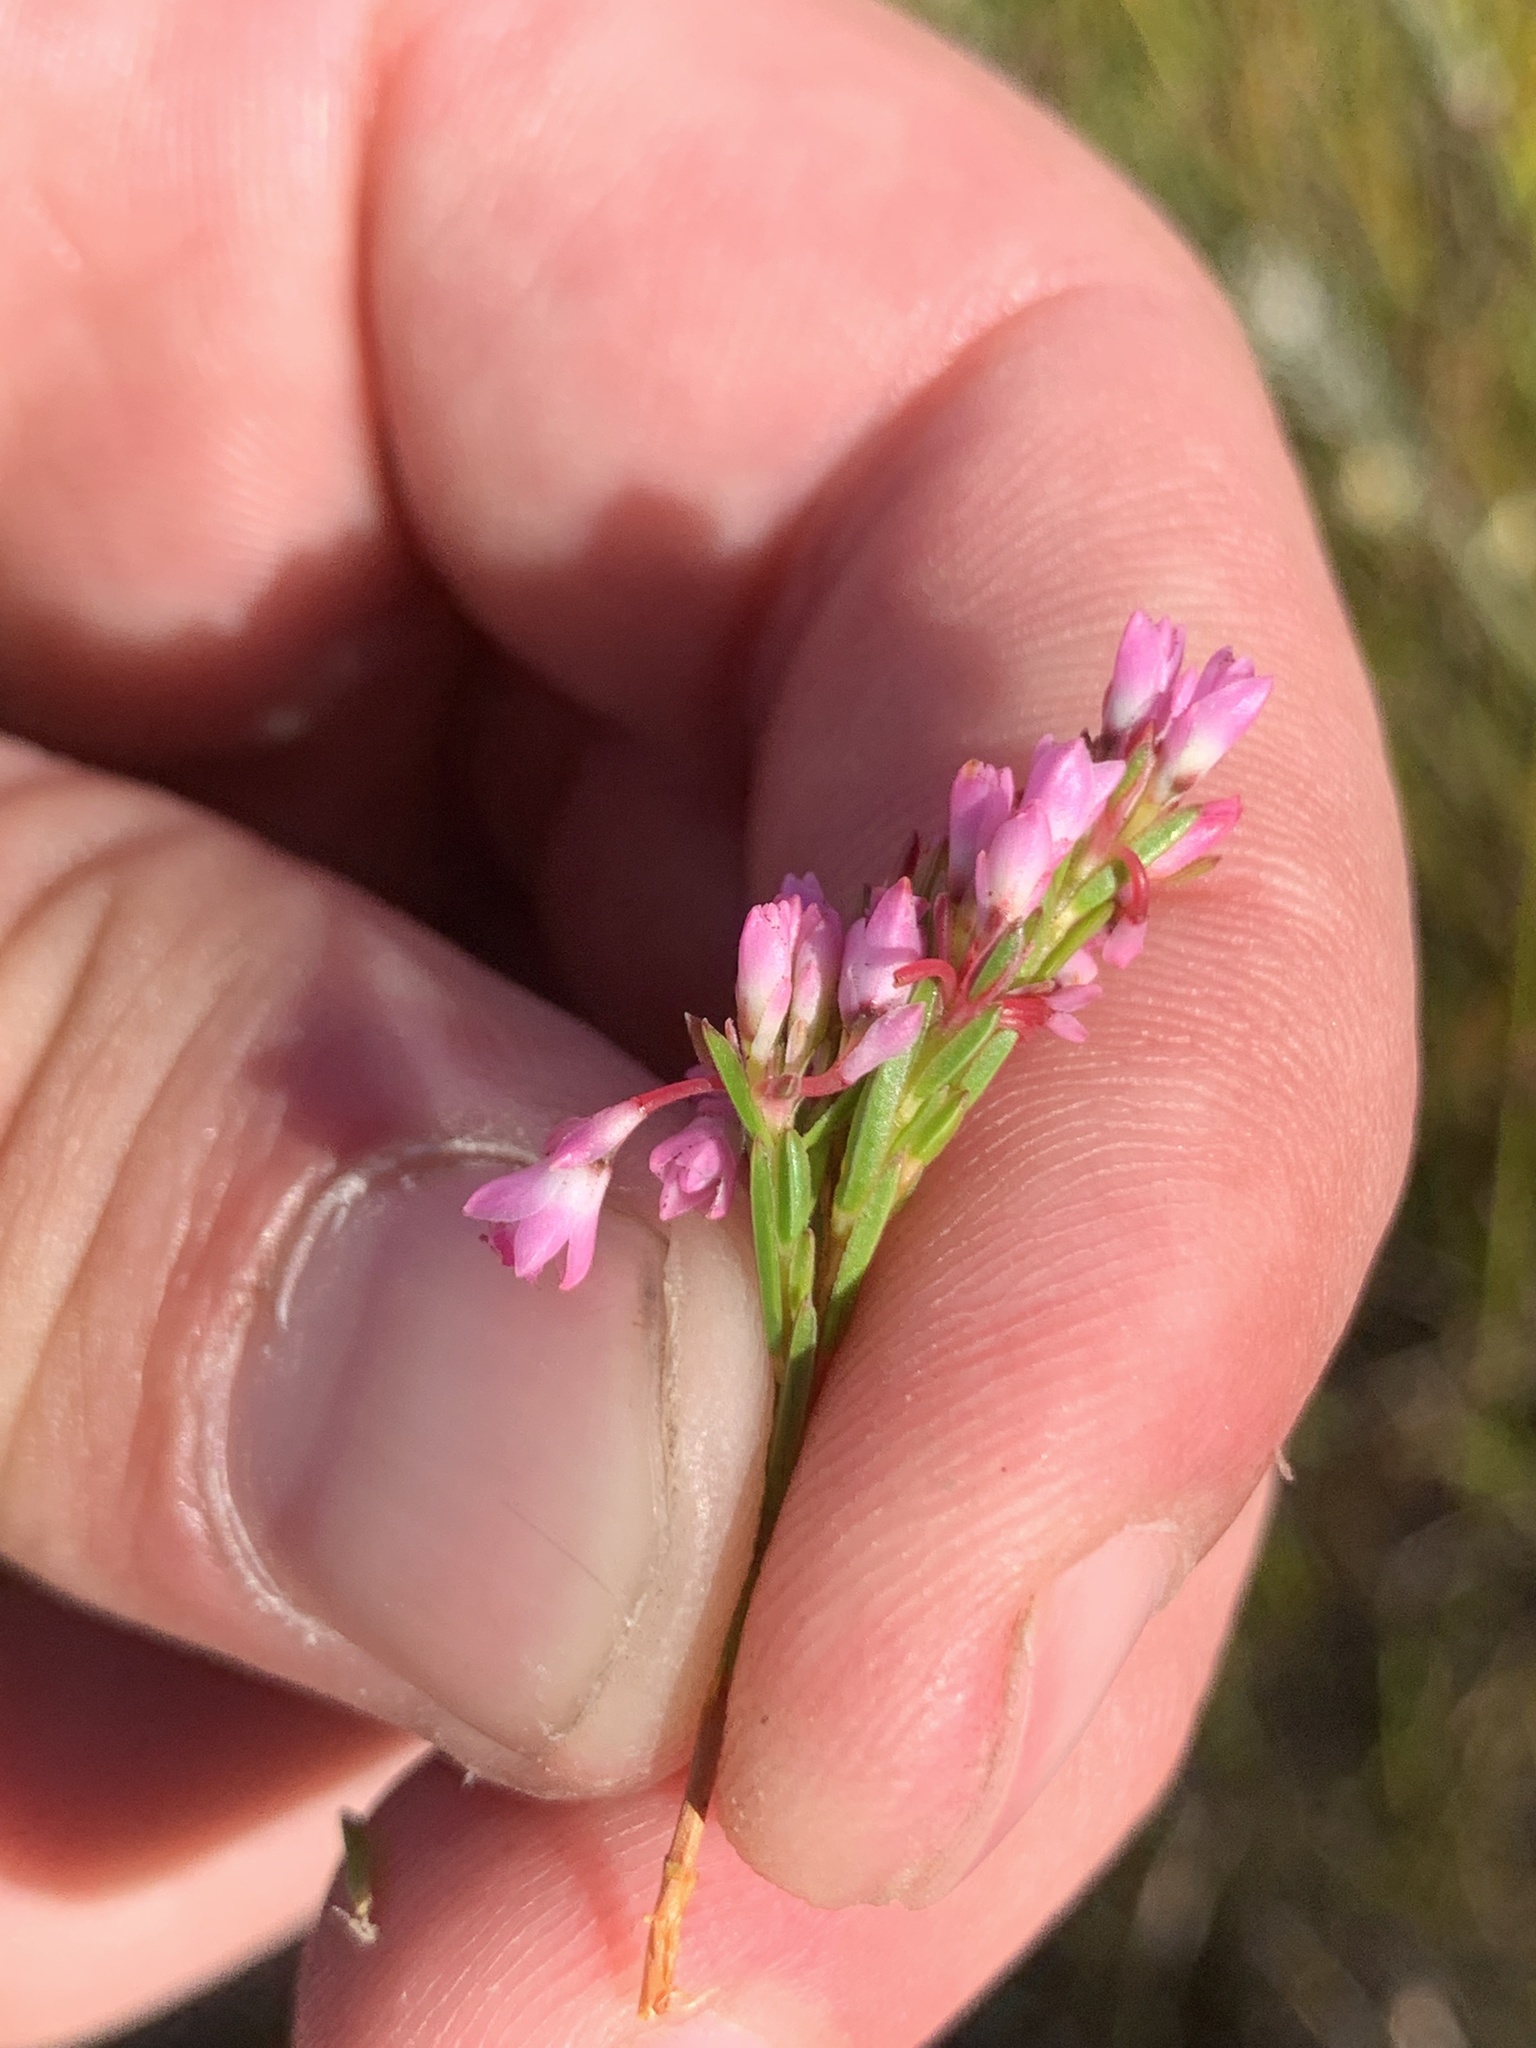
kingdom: Plantae
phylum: Tracheophyta
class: Magnoliopsida
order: Ericales
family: Ericaceae
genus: Erica
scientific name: Erica corifolia
